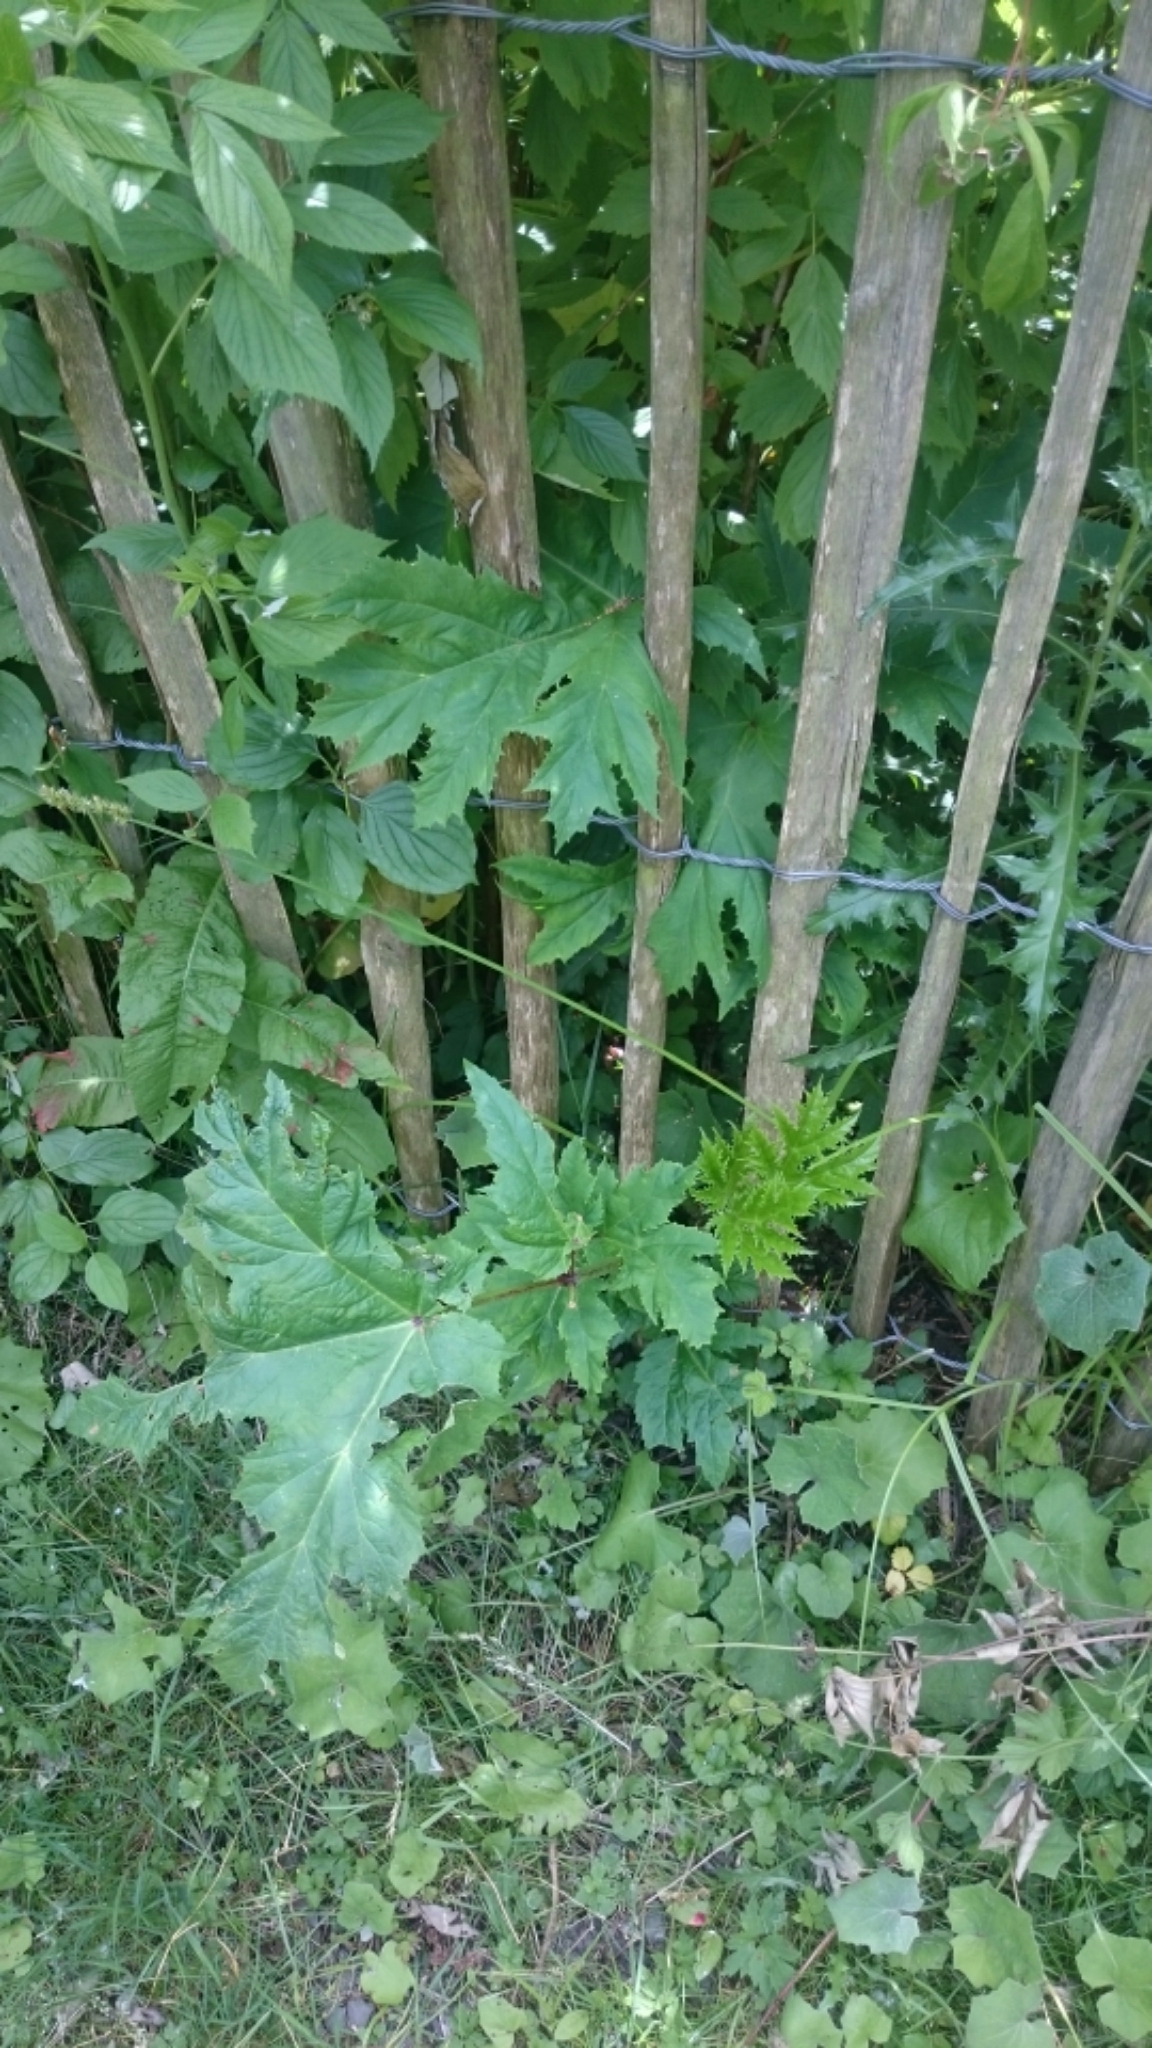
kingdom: Plantae
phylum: Tracheophyta
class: Magnoliopsida
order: Apiales
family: Apiaceae
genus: Heracleum
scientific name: Heracleum mantegazzianum
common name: Giant hogweed
